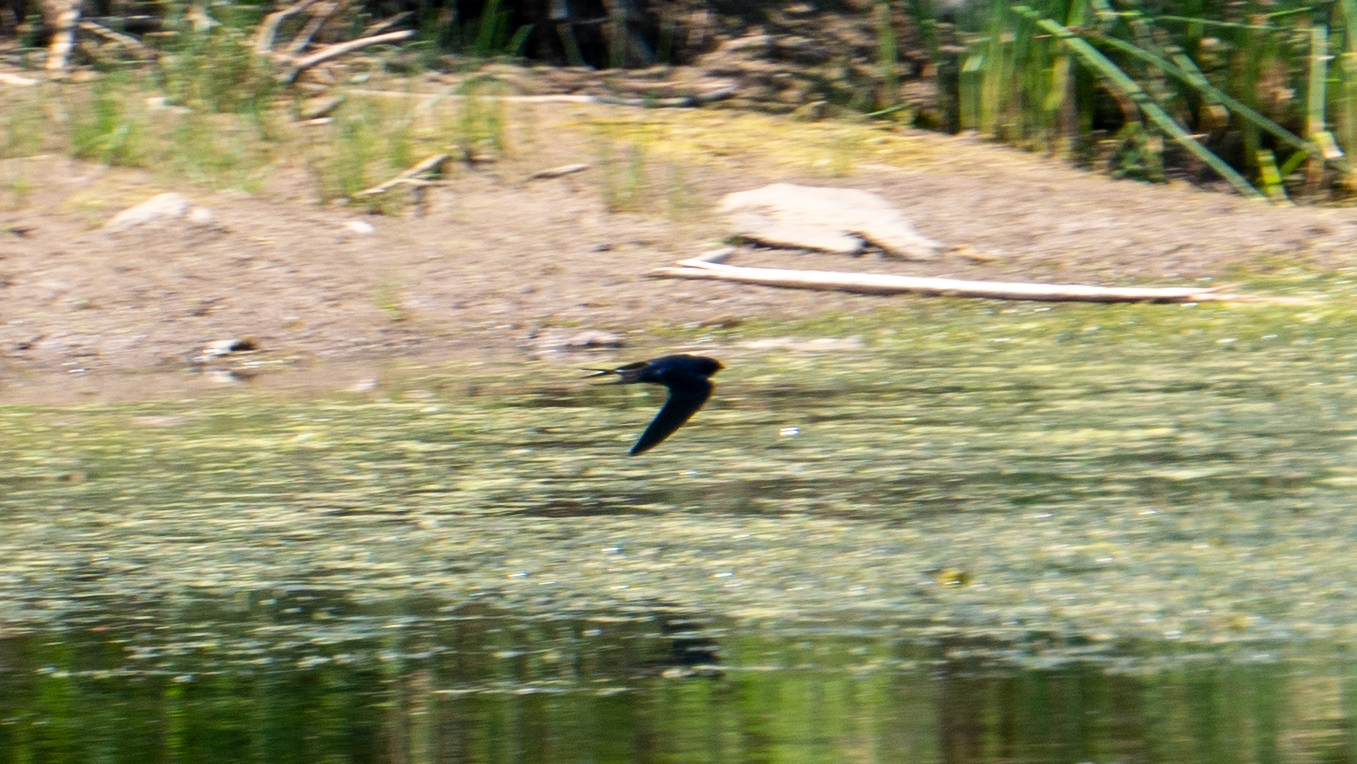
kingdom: Animalia
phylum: Chordata
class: Aves
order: Passeriformes
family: Hirundinidae
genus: Hirundo
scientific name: Hirundo rustica
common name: Barn swallow
